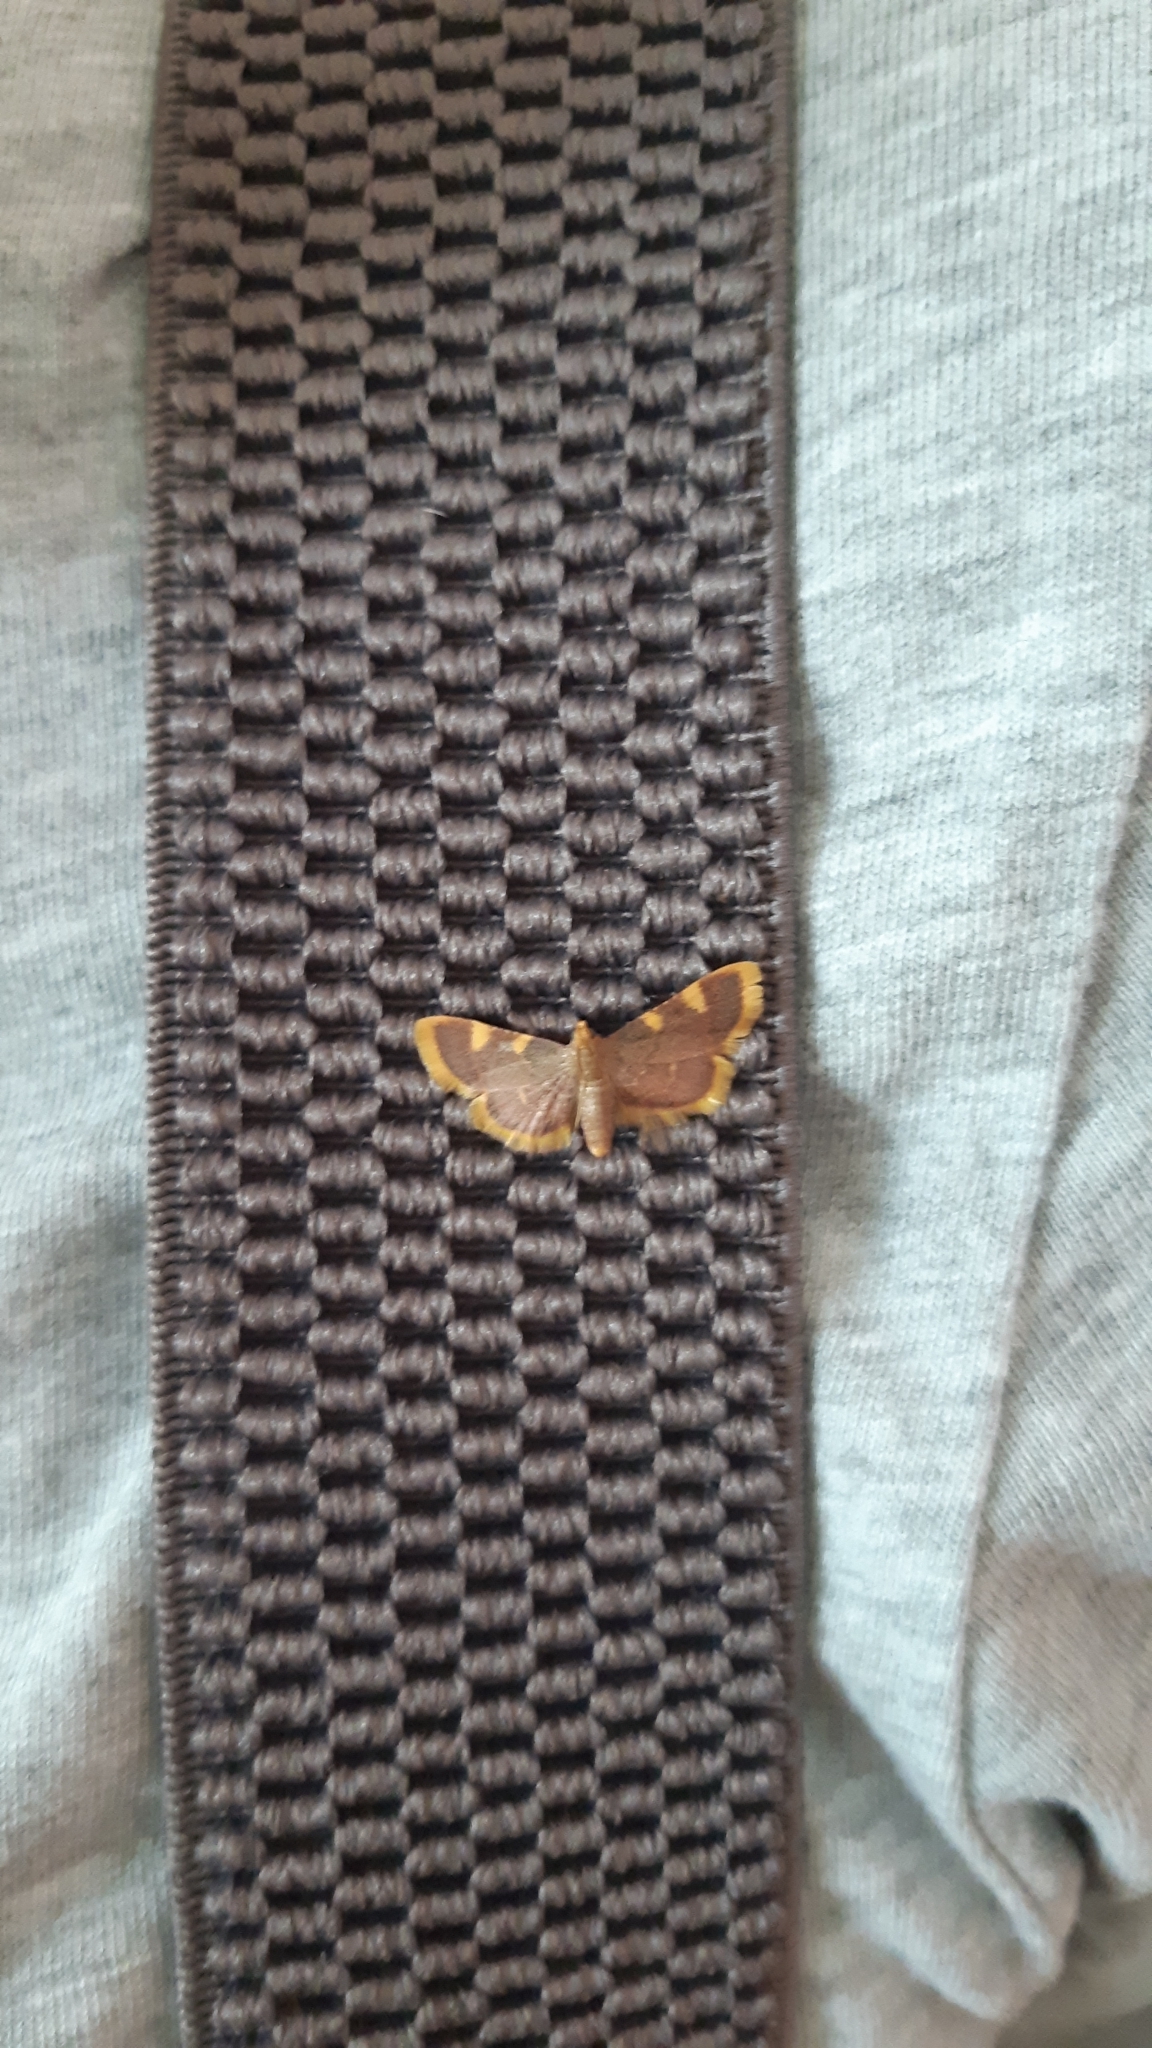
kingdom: Animalia
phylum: Arthropoda
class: Insecta
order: Lepidoptera
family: Pyralidae
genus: Hypsopygia
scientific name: Hypsopygia costalis
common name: Gold triangle
